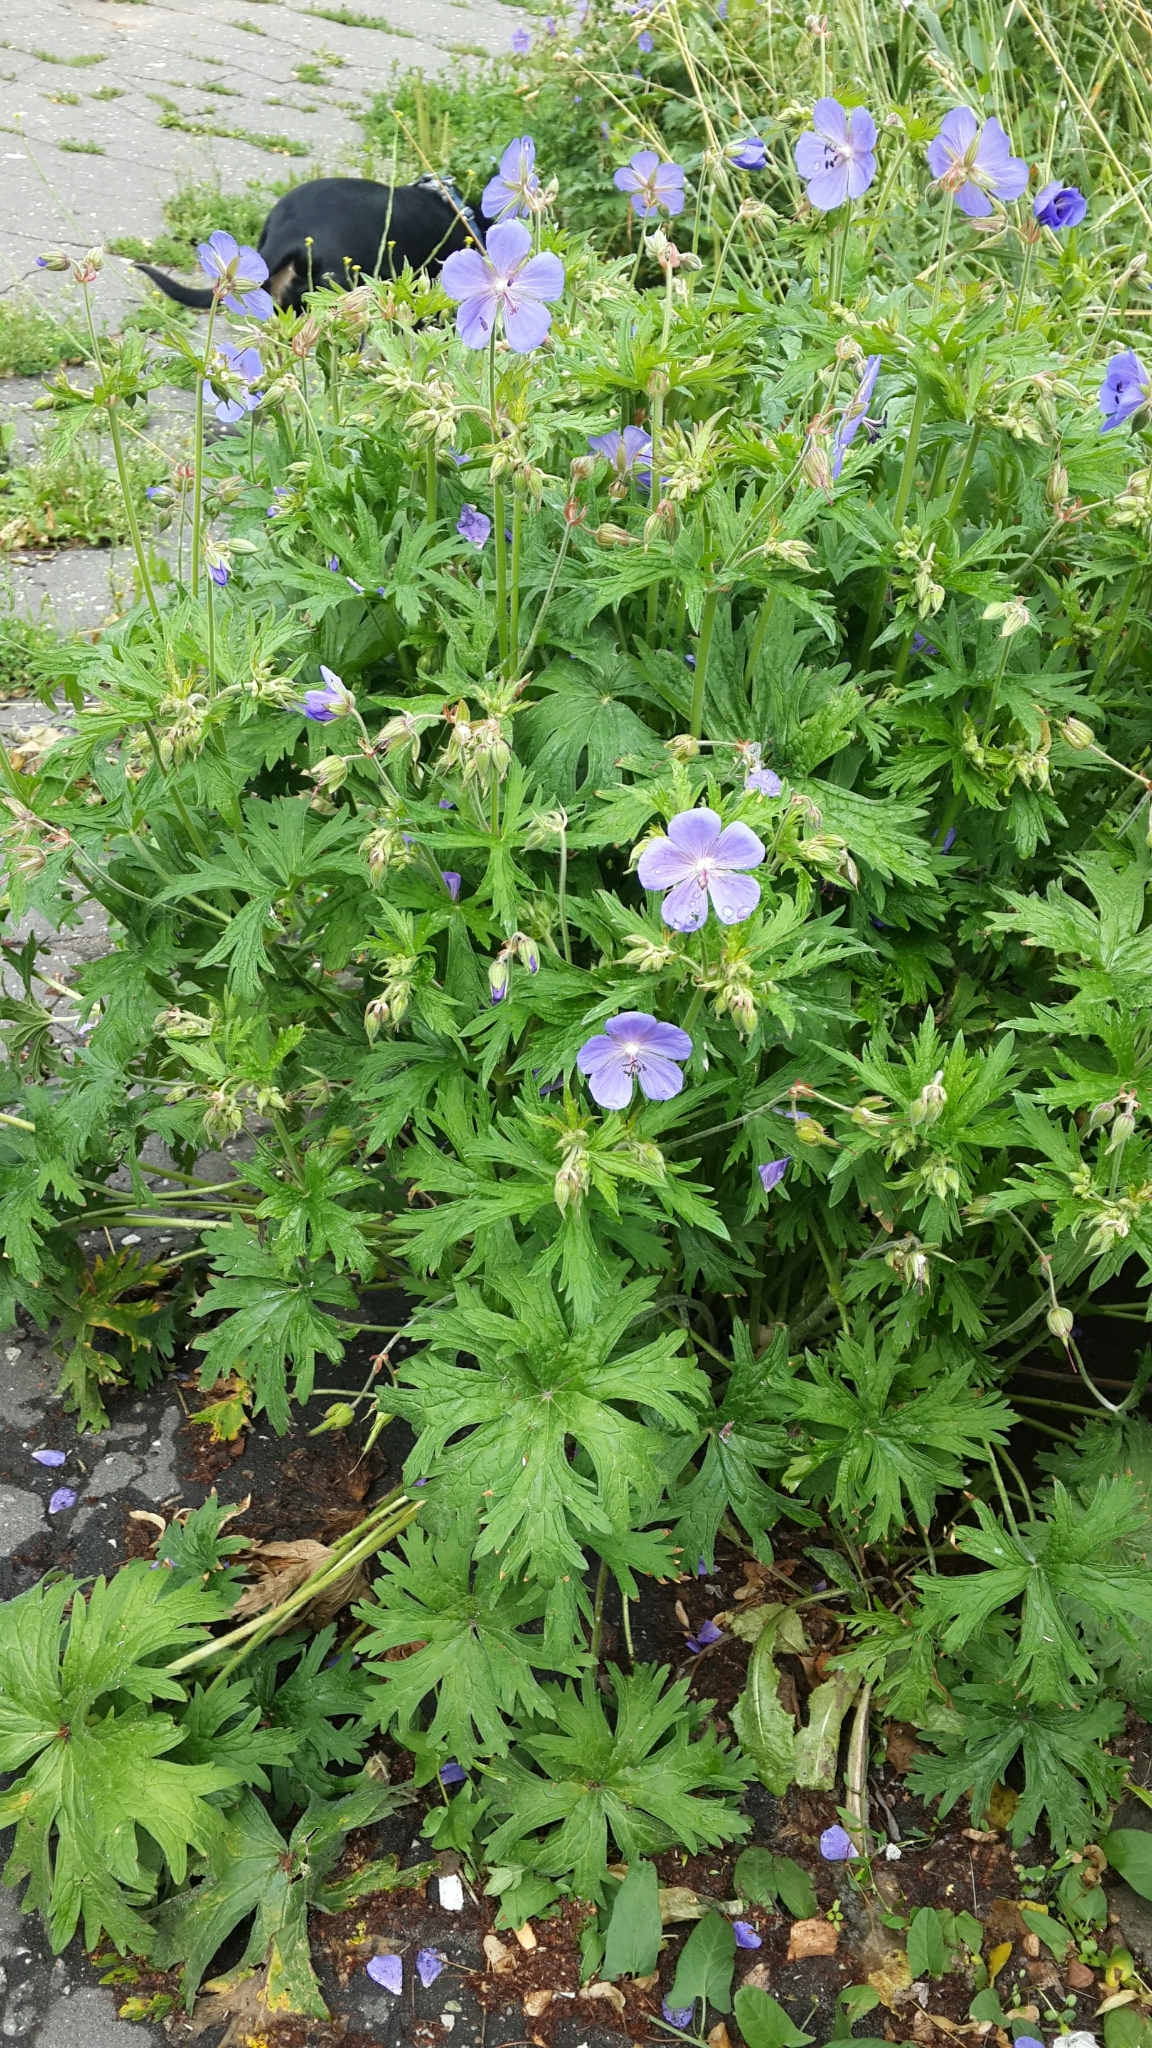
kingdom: Plantae
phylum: Tracheophyta
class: Magnoliopsida
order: Geraniales
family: Geraniaceae
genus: Geranium
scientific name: Geranium pratense
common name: Meadow crane's-bill
